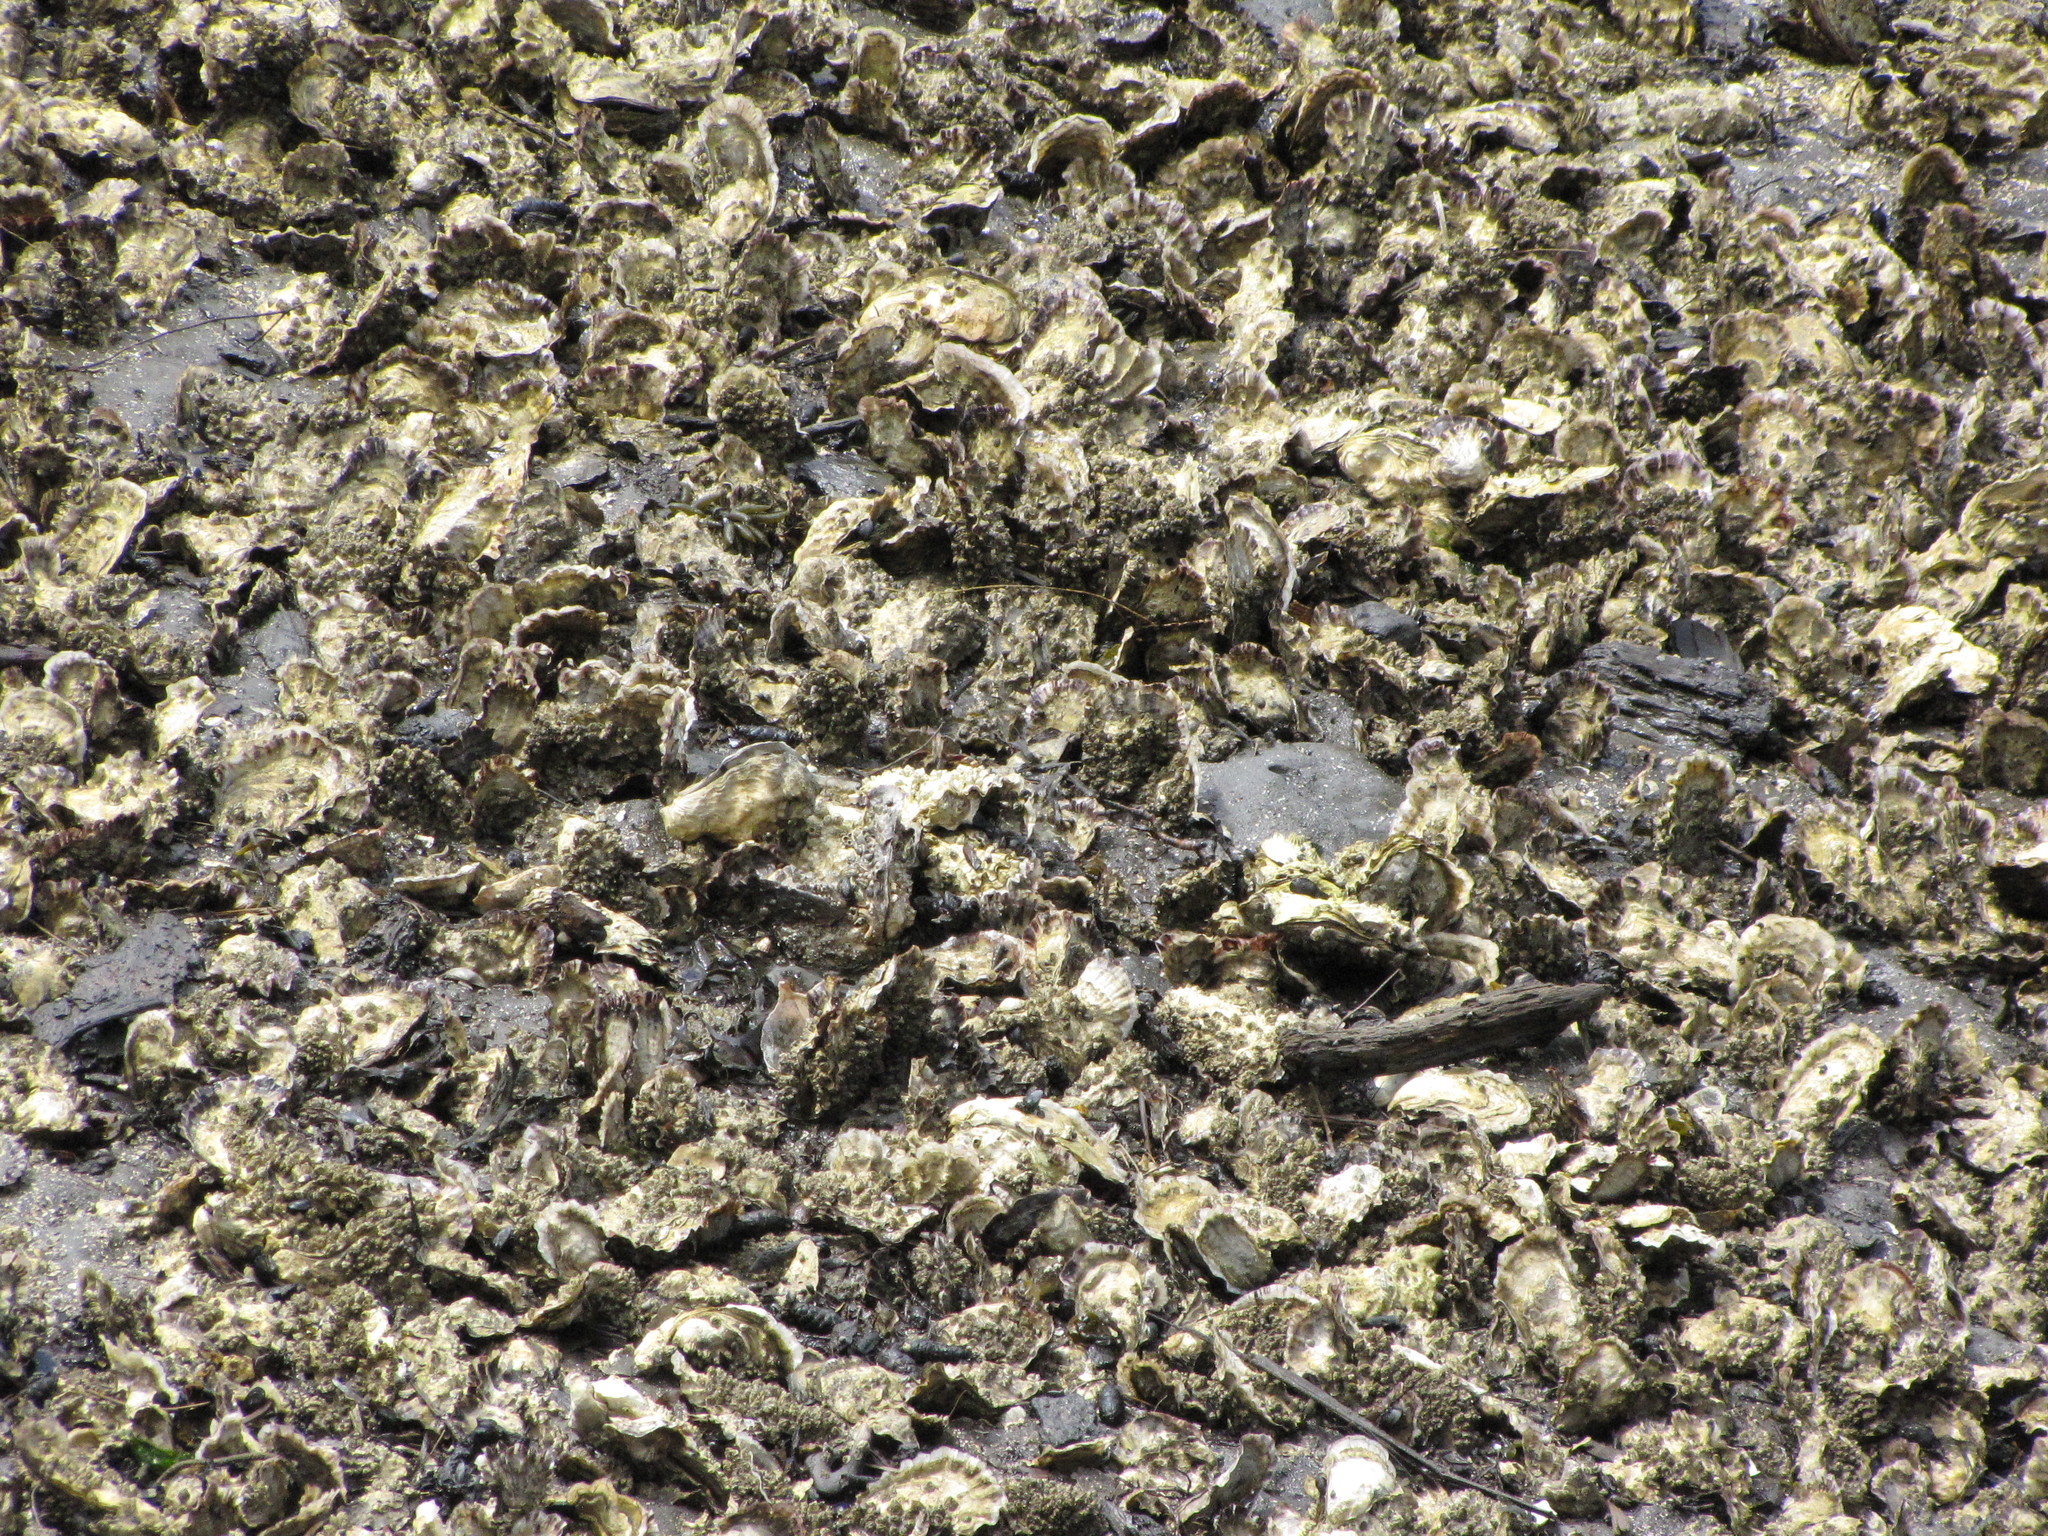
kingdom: Animalia
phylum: Mollusca
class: Bivalvia
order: Ostreida
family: Ostreidae
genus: Magallana
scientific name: Magallana gigas
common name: Pacific oyster
